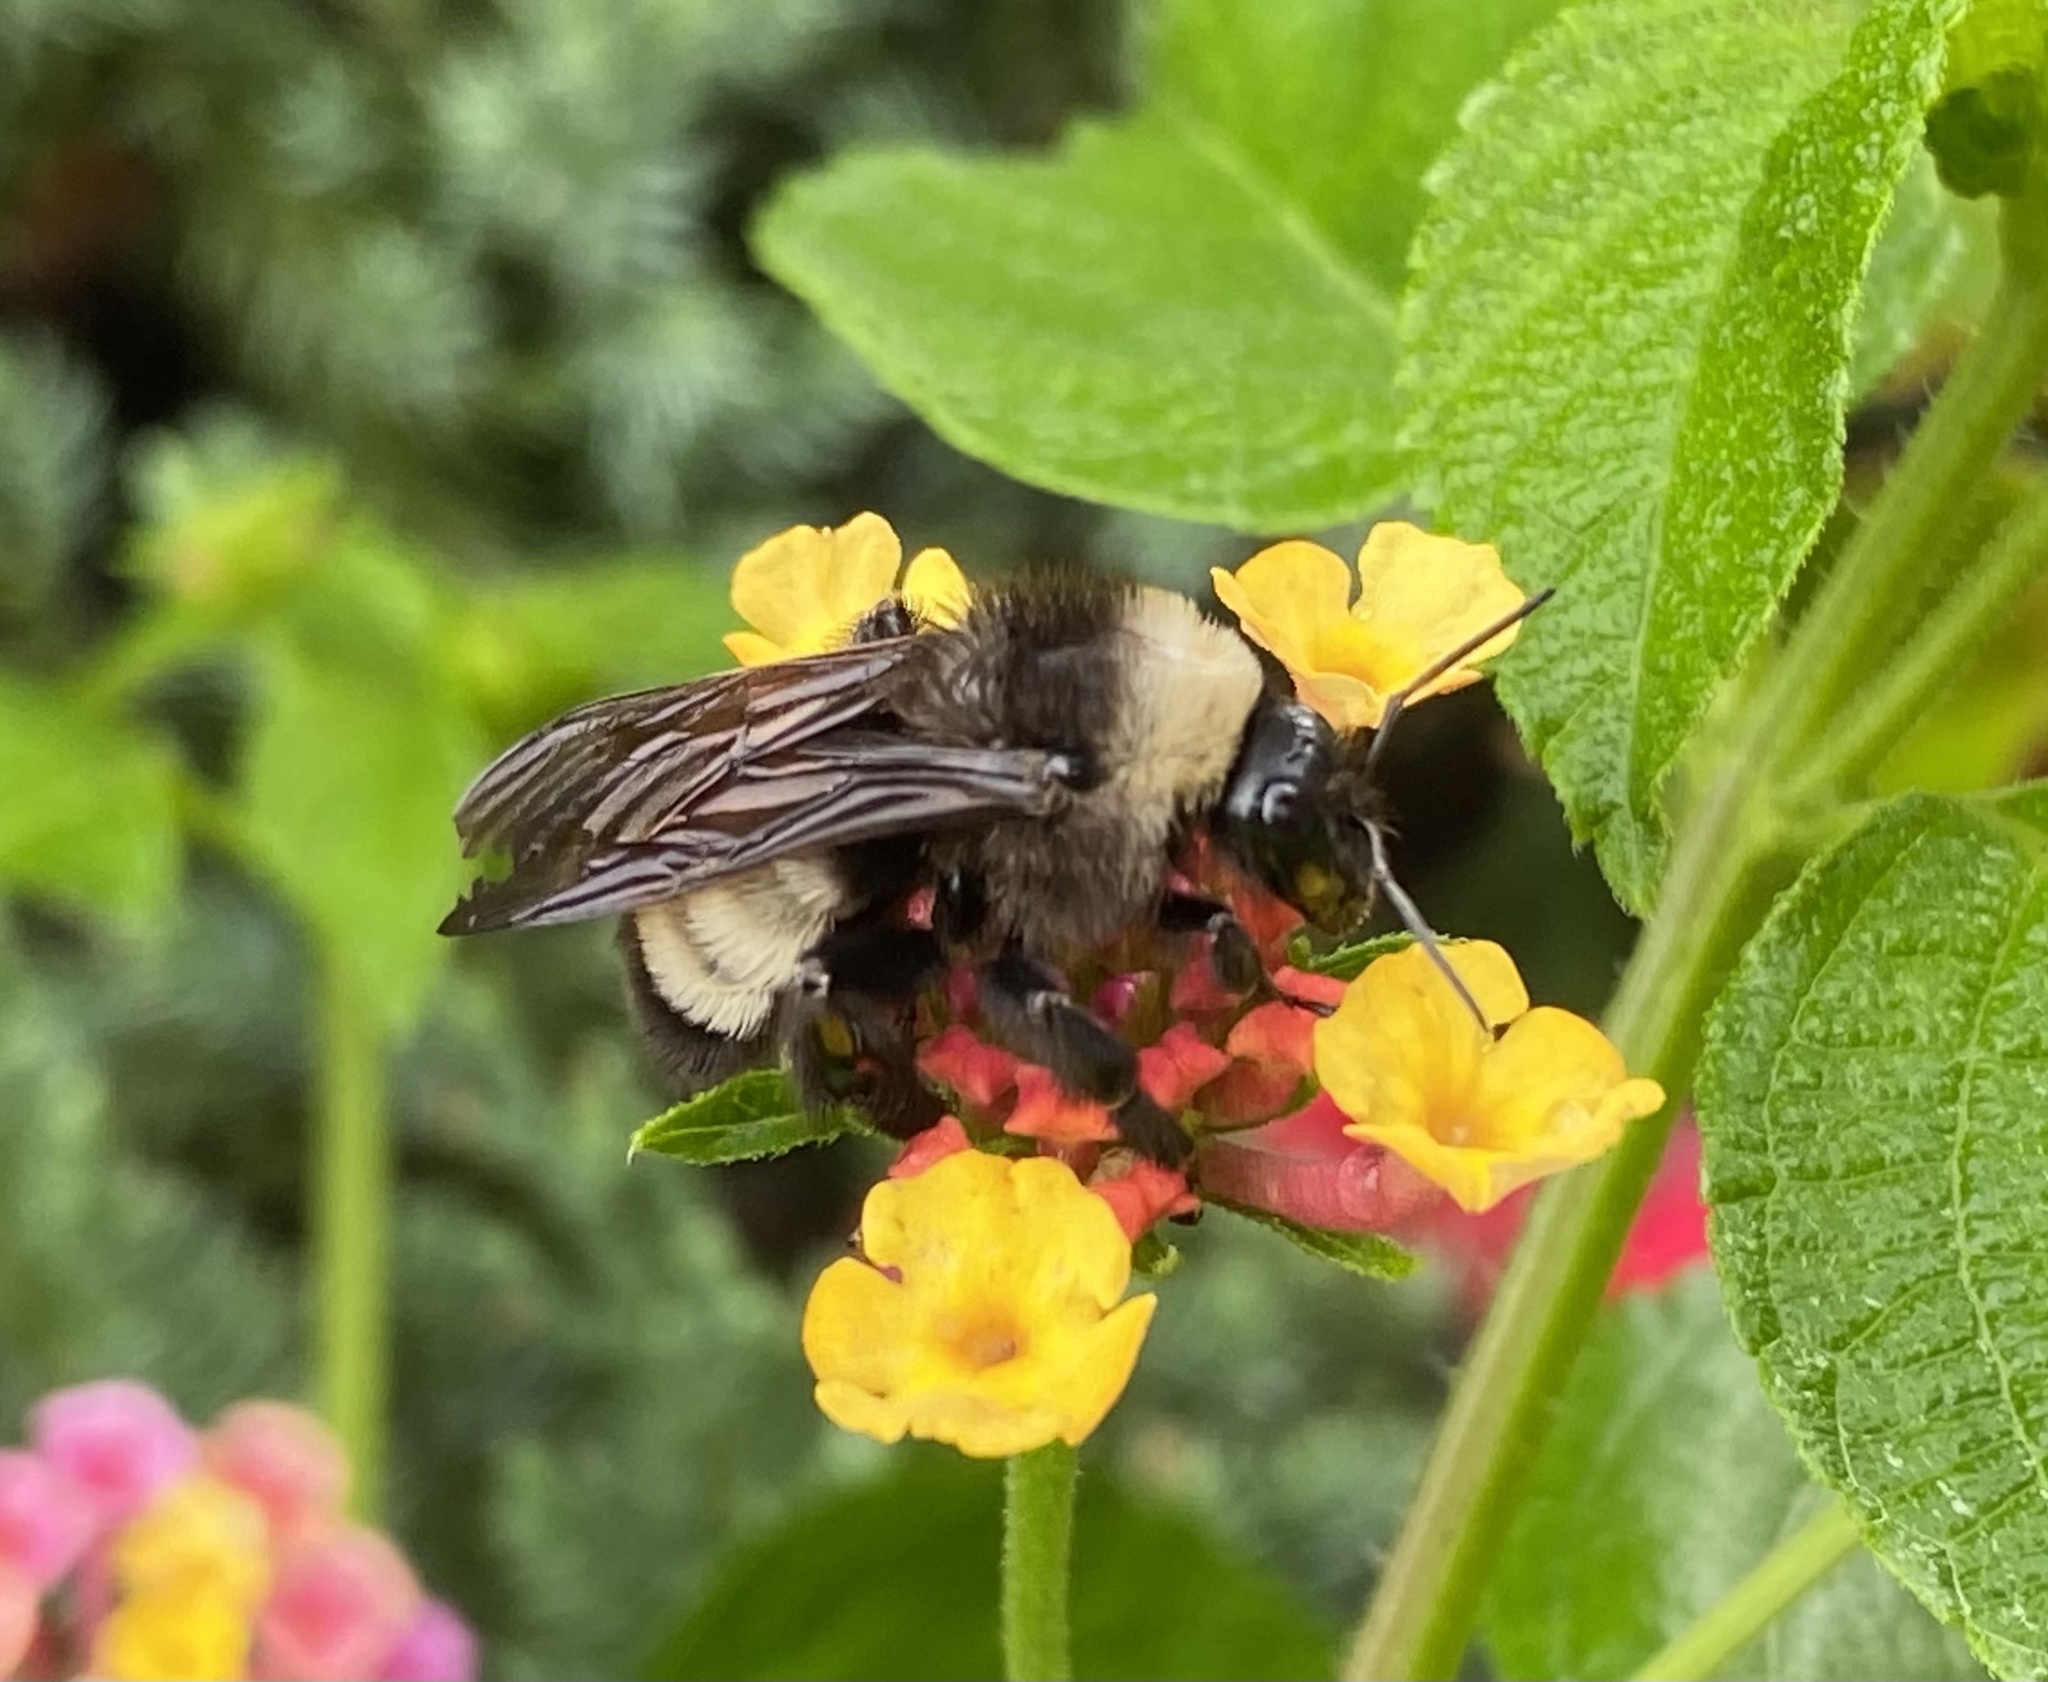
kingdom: Animalia
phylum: Arthropoda
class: Insecta
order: Hymenoptera
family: Apidae
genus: Bombus
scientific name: Bombus pensylvanicus
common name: Bumble bee
